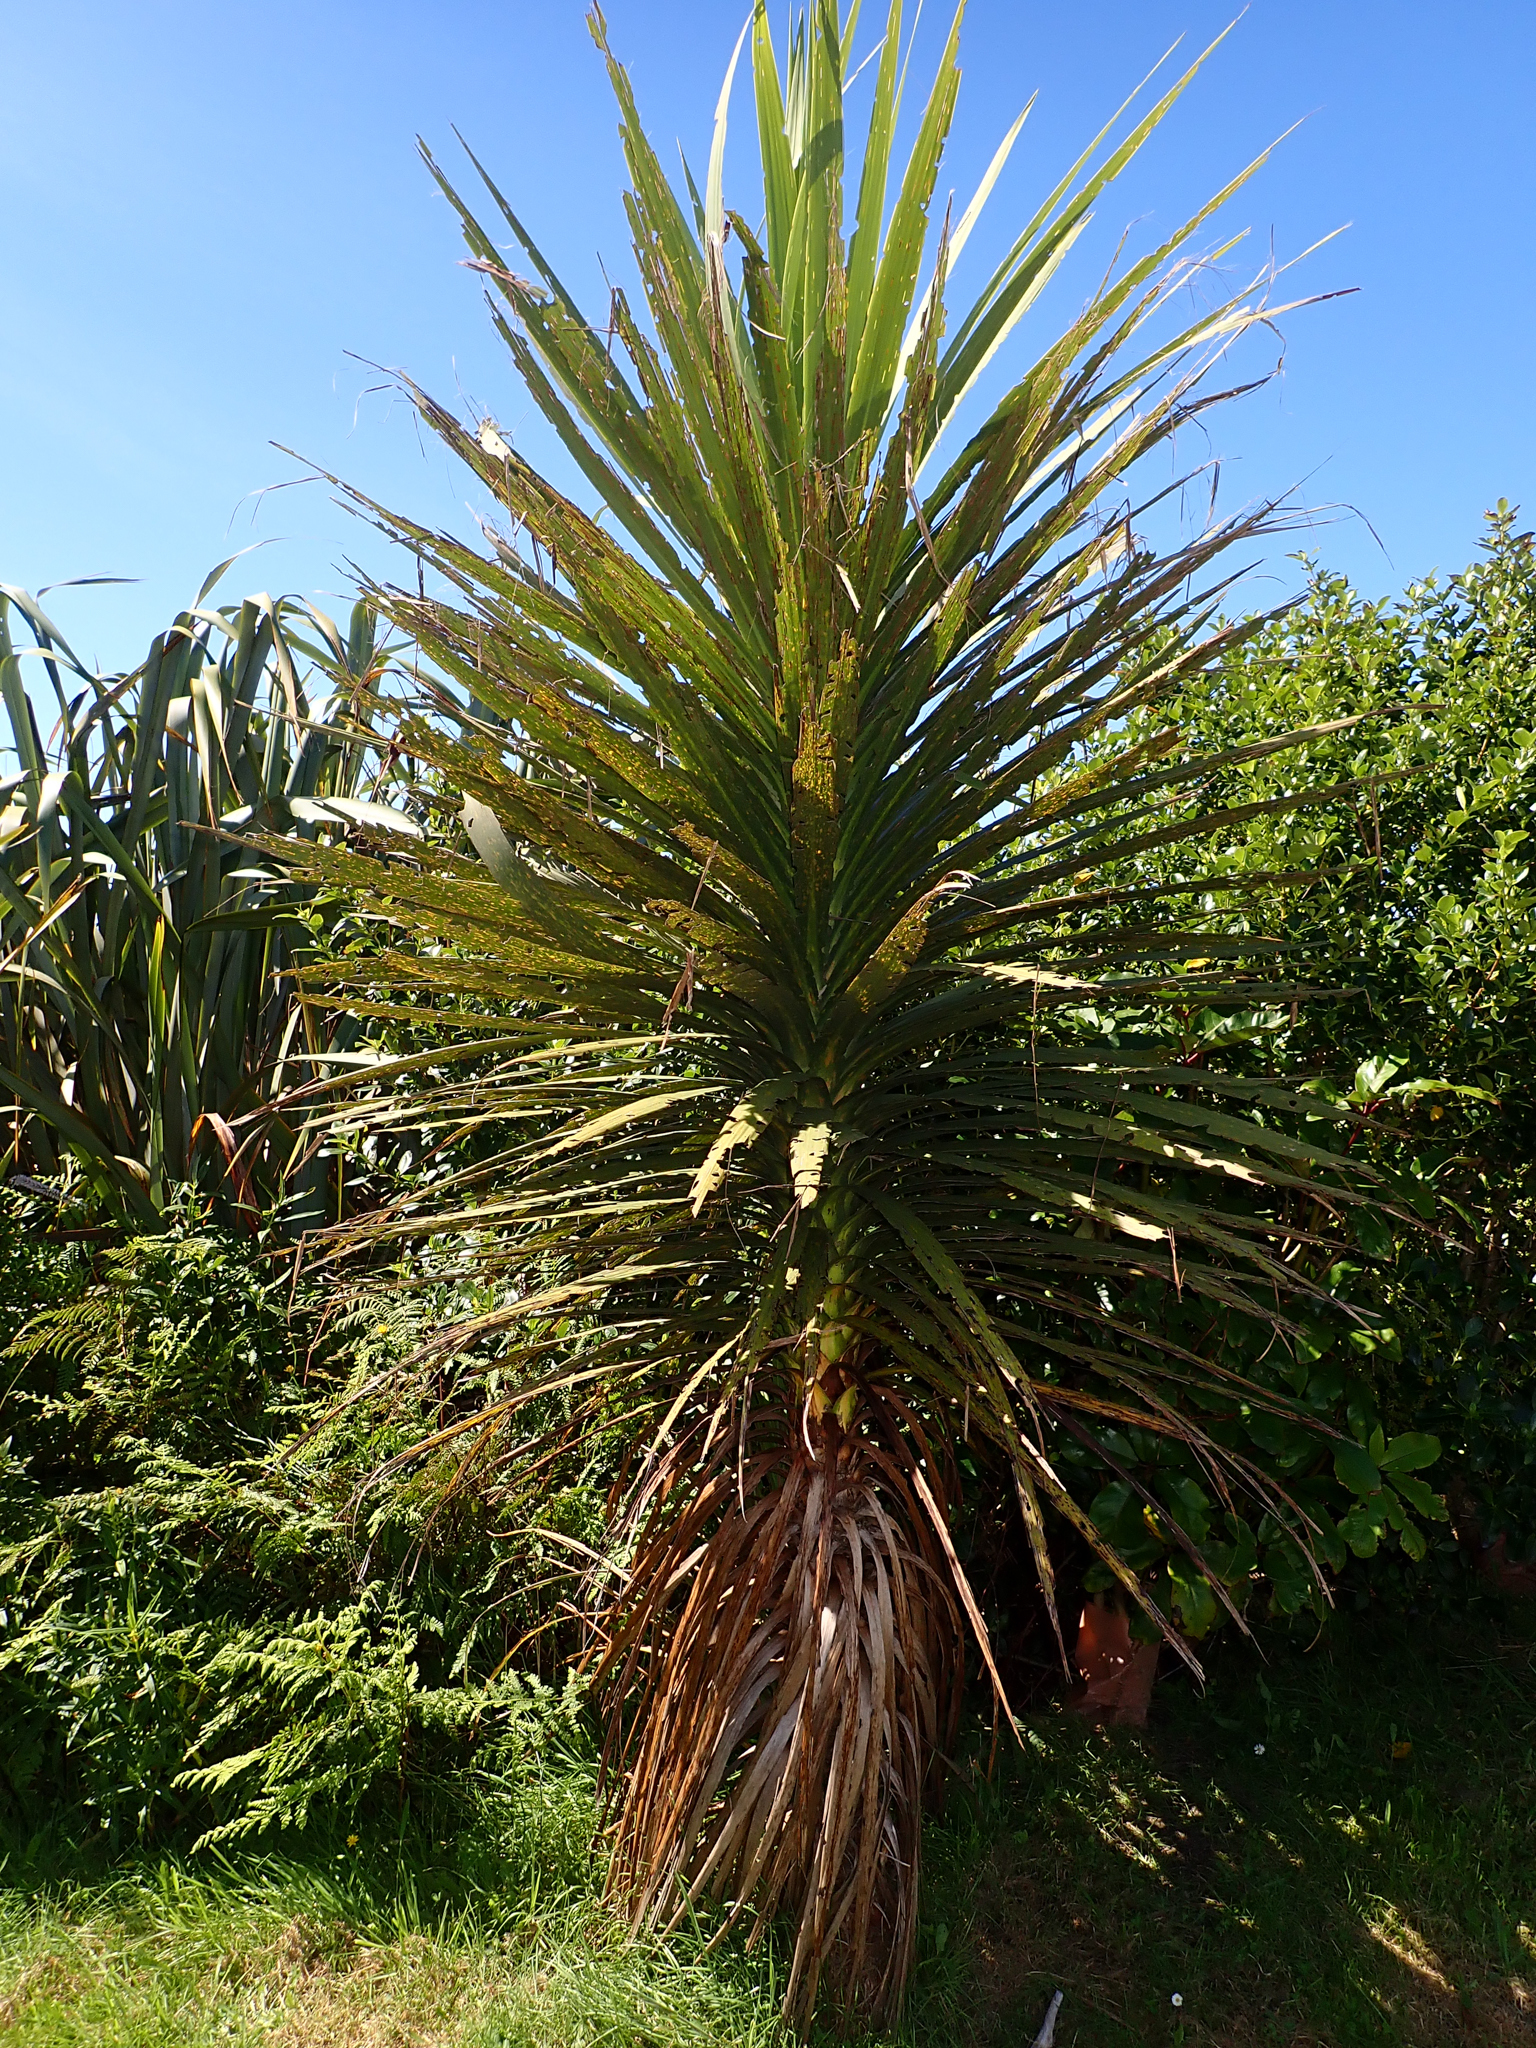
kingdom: Plantae
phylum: Tracheophyta
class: Liliopsida
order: Asparagales
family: Asparagaceae
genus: Cordyline
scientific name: Cordyline australis
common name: Cabbage-palm
